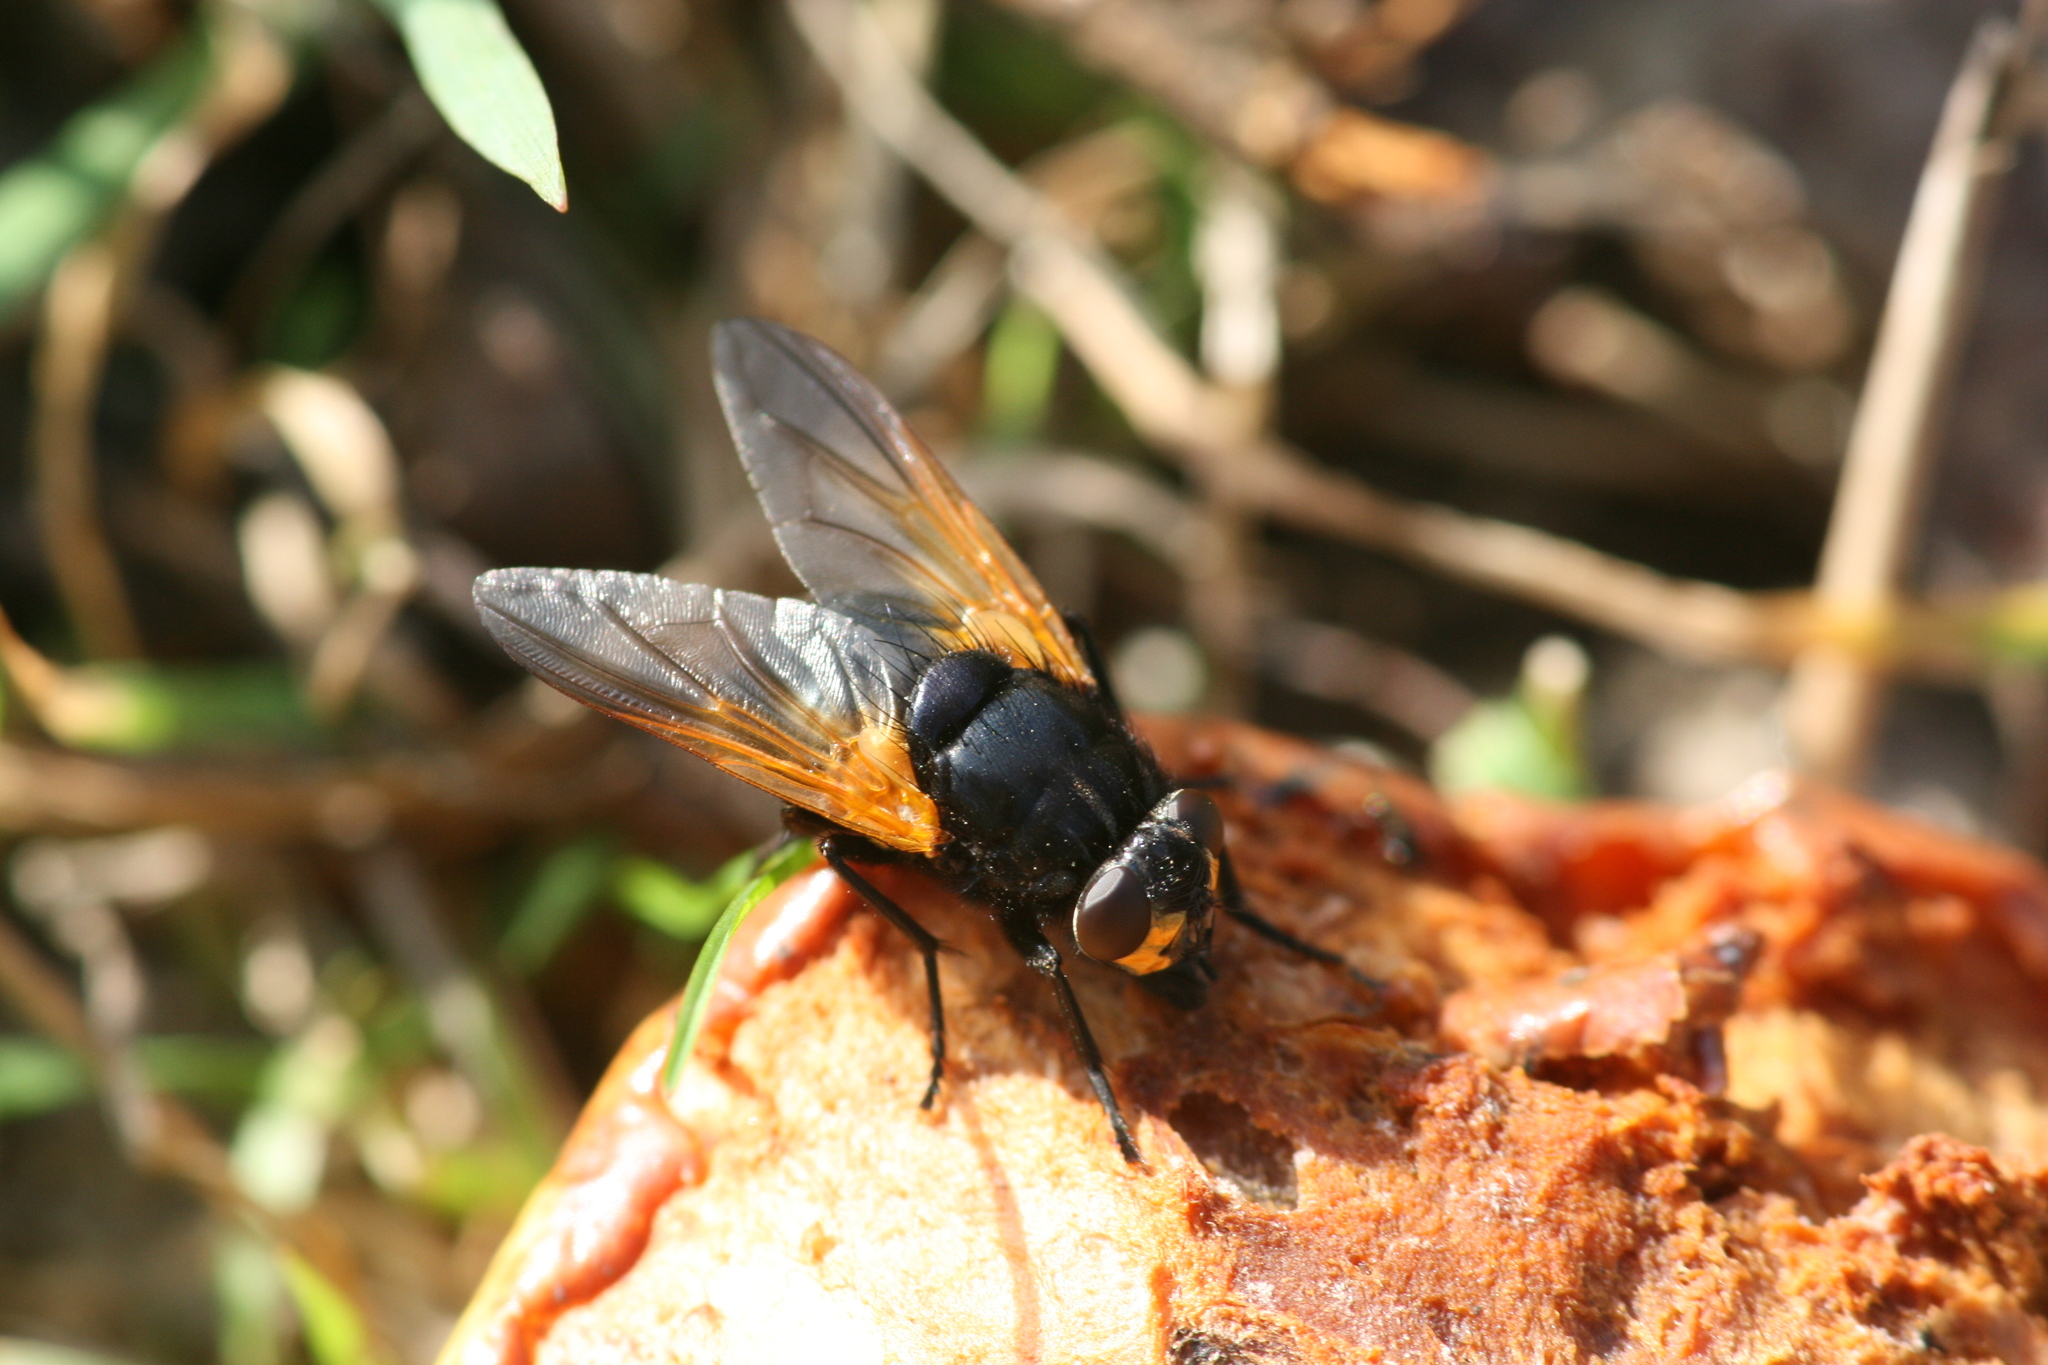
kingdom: Animalia
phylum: Arthropoda
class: Insecta
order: Diptera
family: Muscidae
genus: Mesembrina
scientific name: Mesembrina meridiana
